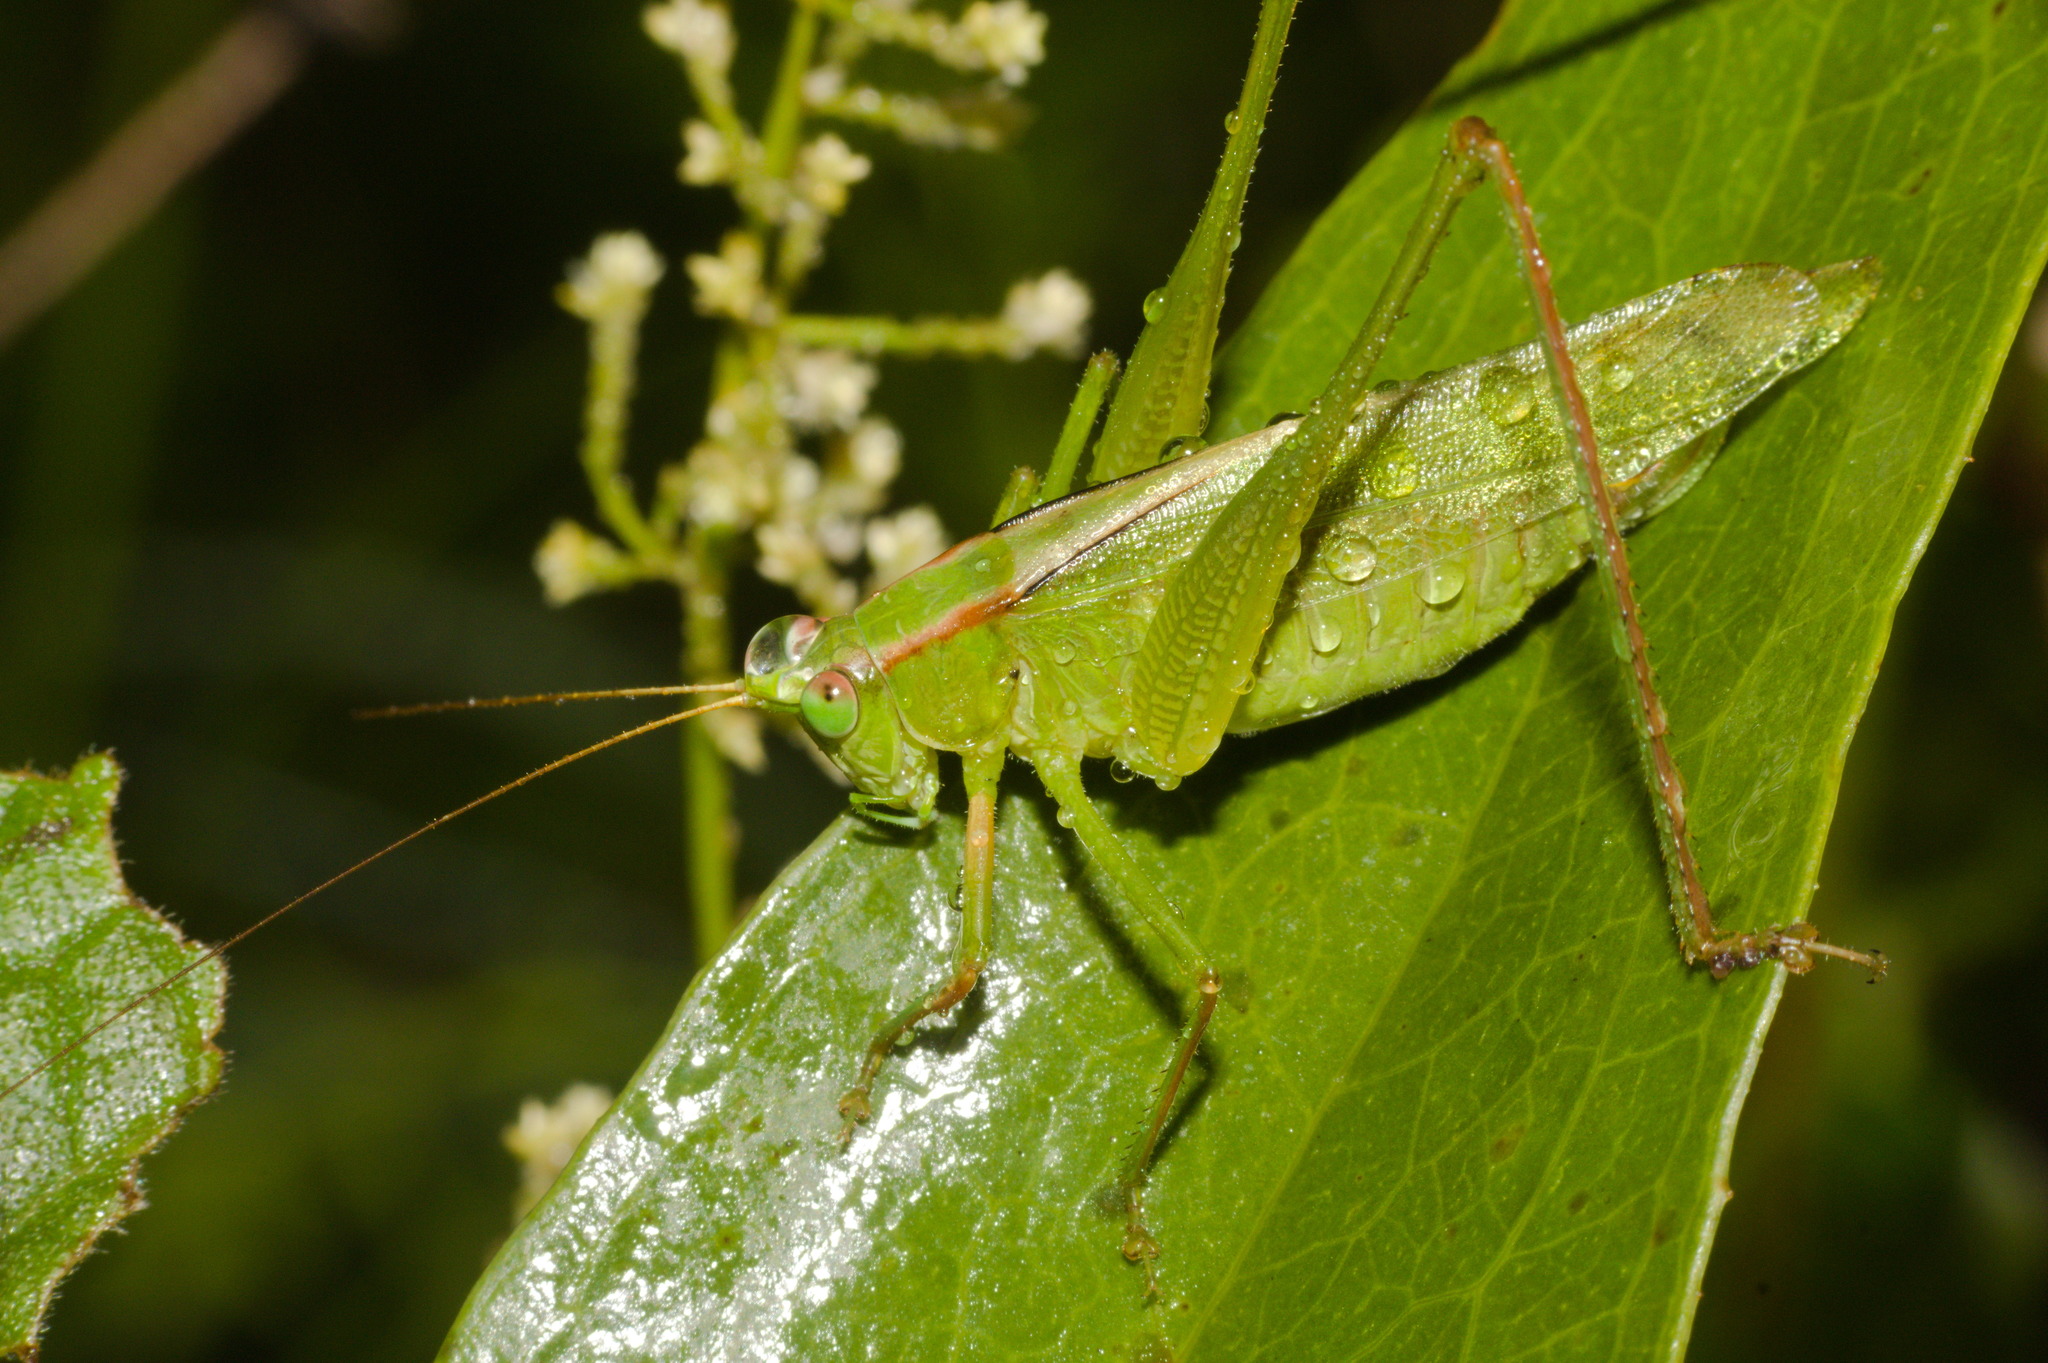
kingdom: Animalia
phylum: Arthropoda
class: Insecta
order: Orthoptera
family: Tettigoniidae
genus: Theudoria
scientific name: Theudoria melanocnemis
